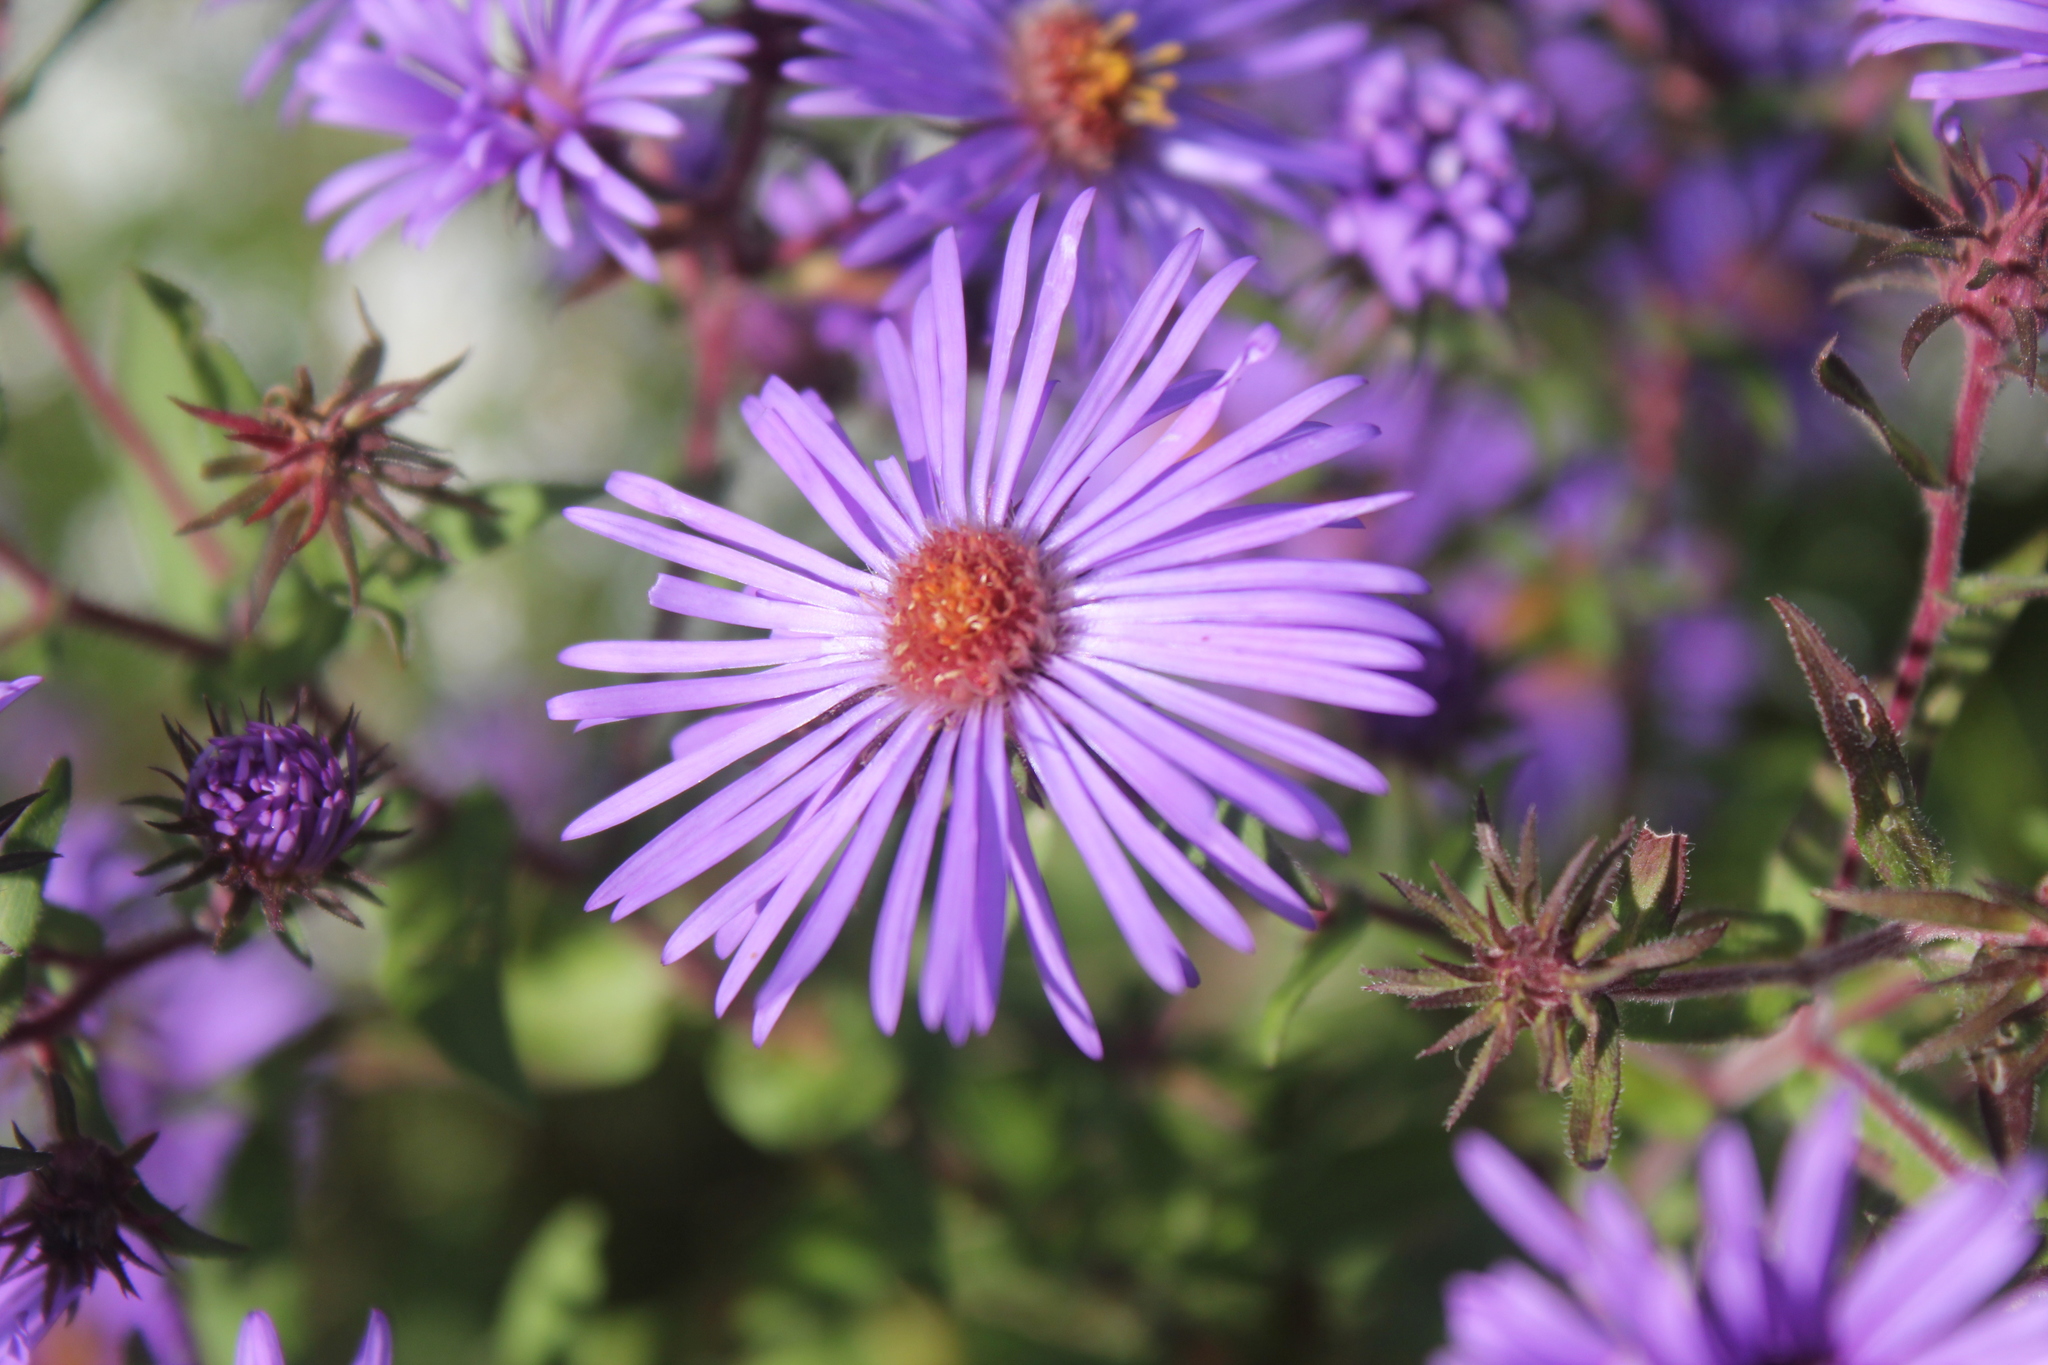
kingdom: Plantae
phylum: Tracheophyta
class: Magnoliopsida
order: Asterales
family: Asteraceae
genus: Symphyotrichum
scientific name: Symphyotrichum novae-angliae
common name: Michaelmas daisy
